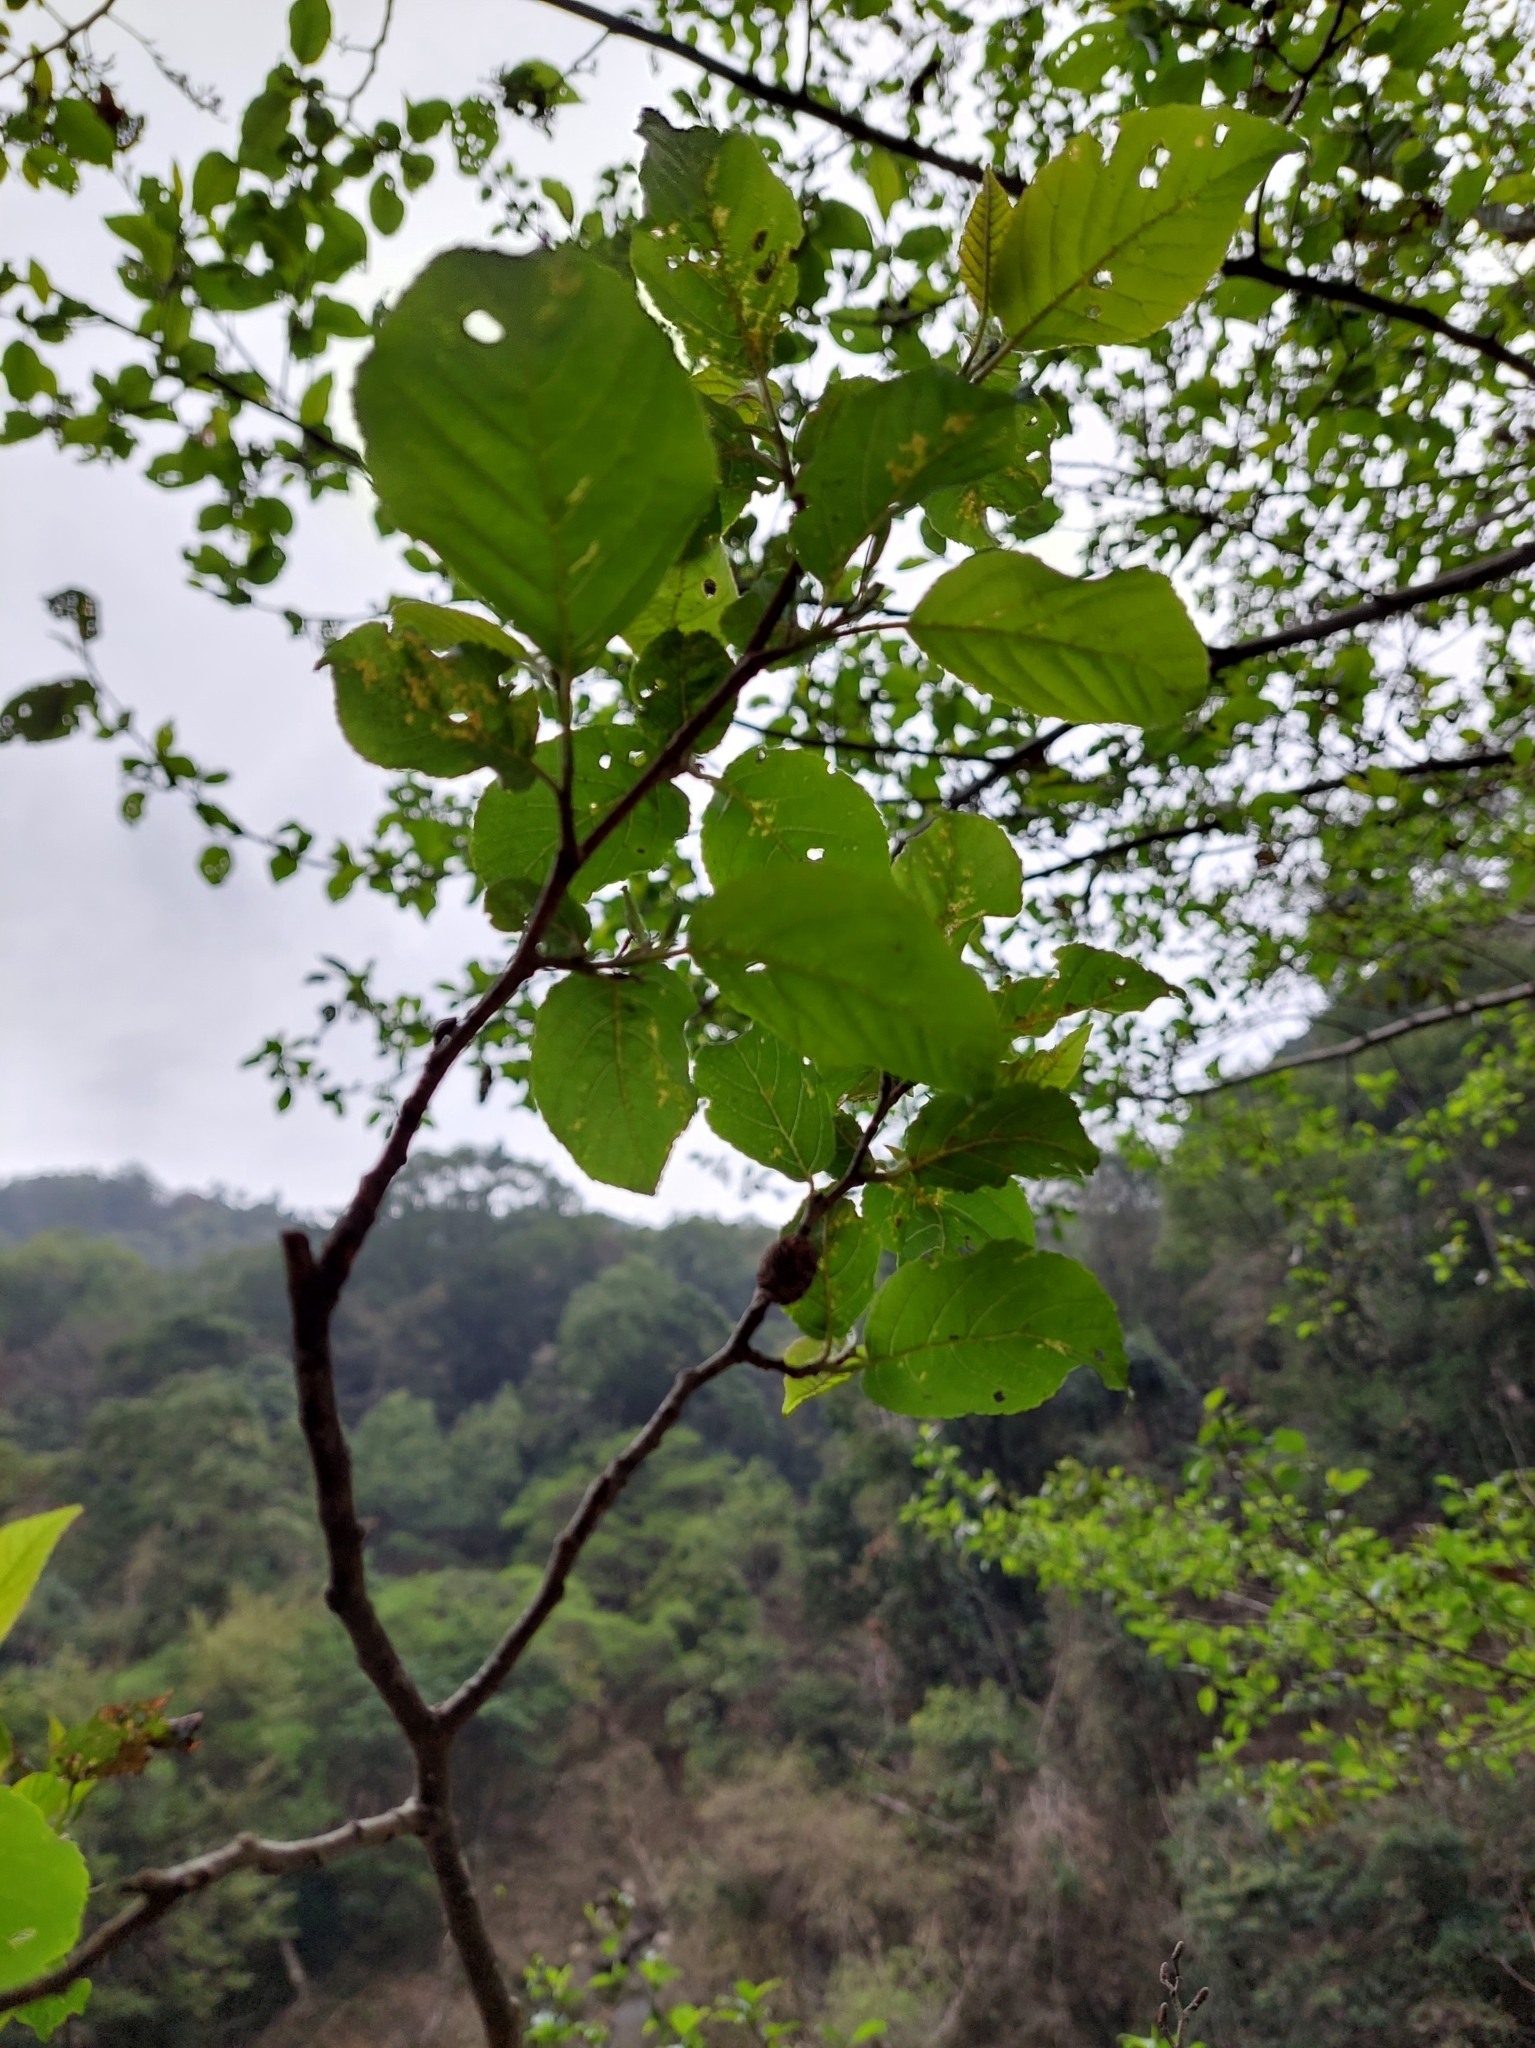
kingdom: Plantae
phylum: Tracheophyta
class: Magnoliopsida
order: Fagales
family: Betulaceae
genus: Alnus
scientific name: Alnus formosana
